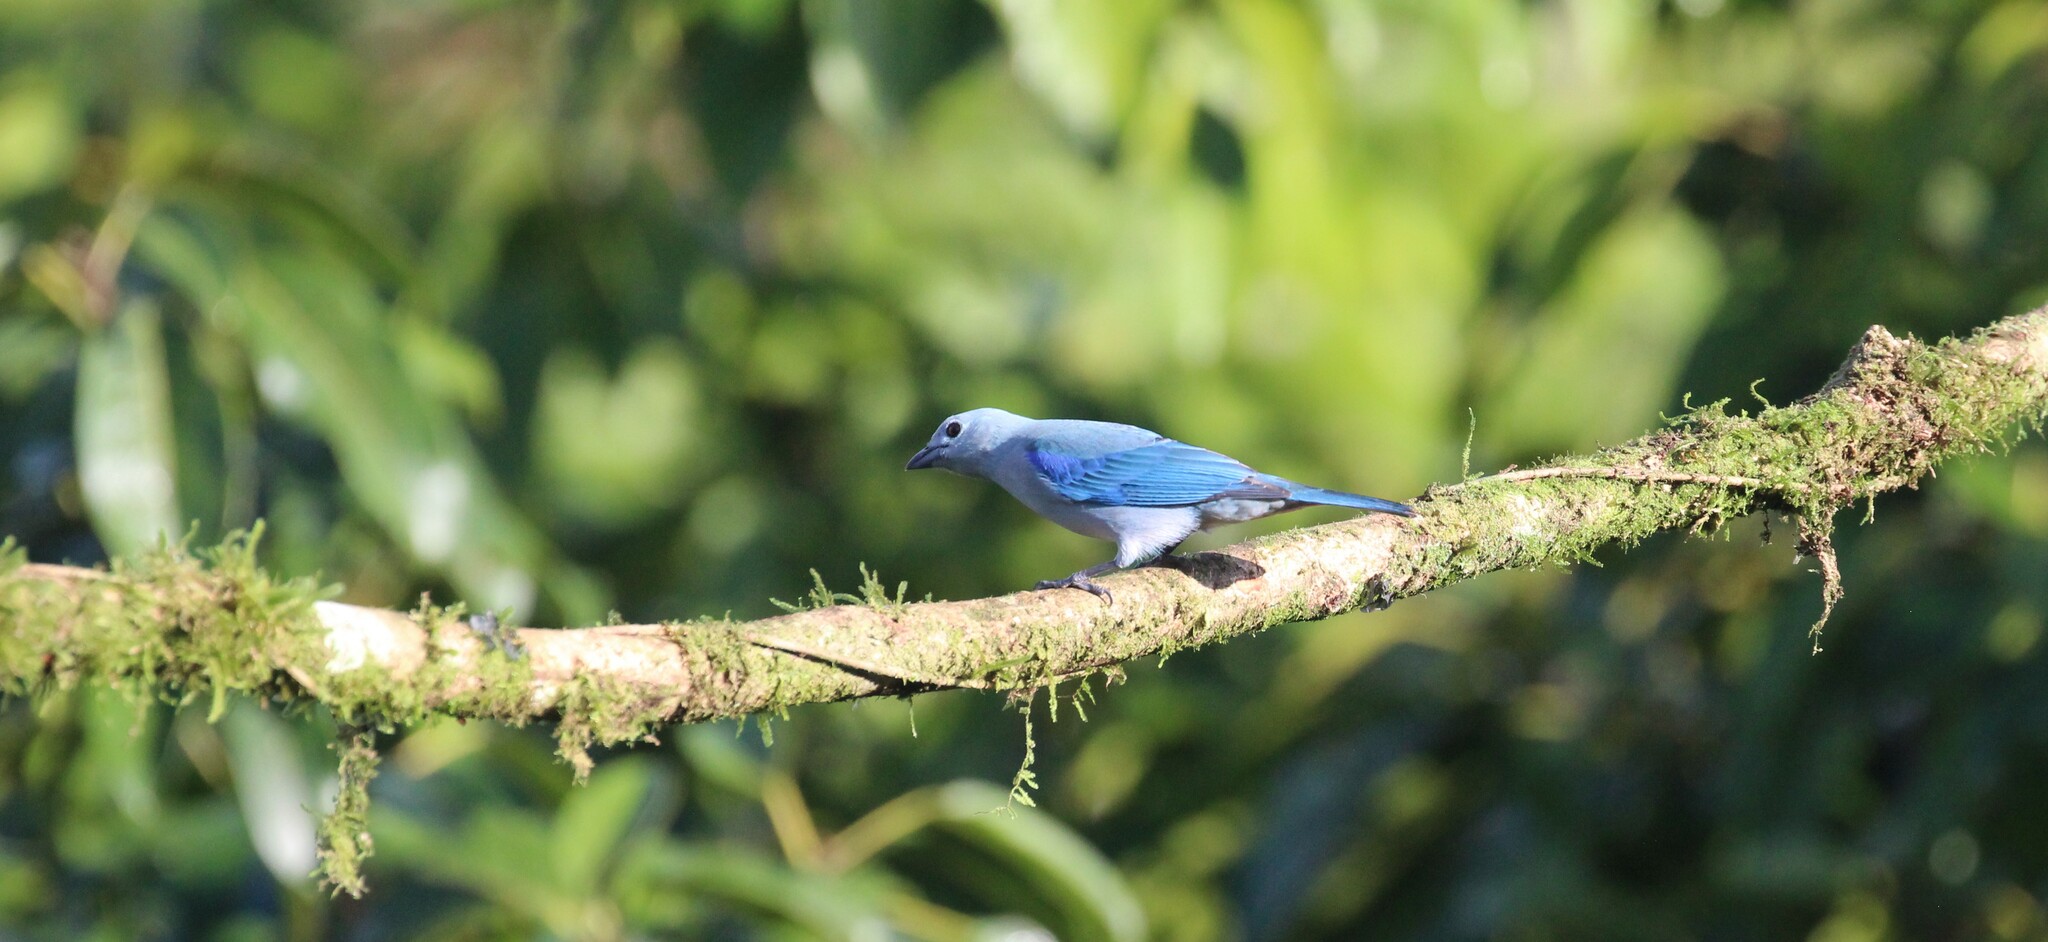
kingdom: Animalia
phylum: Chordata
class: Aves
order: Passeriformes
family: Thraupidae
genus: Thraupis
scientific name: Thraupis episcopus
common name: Blue-grey tanager
